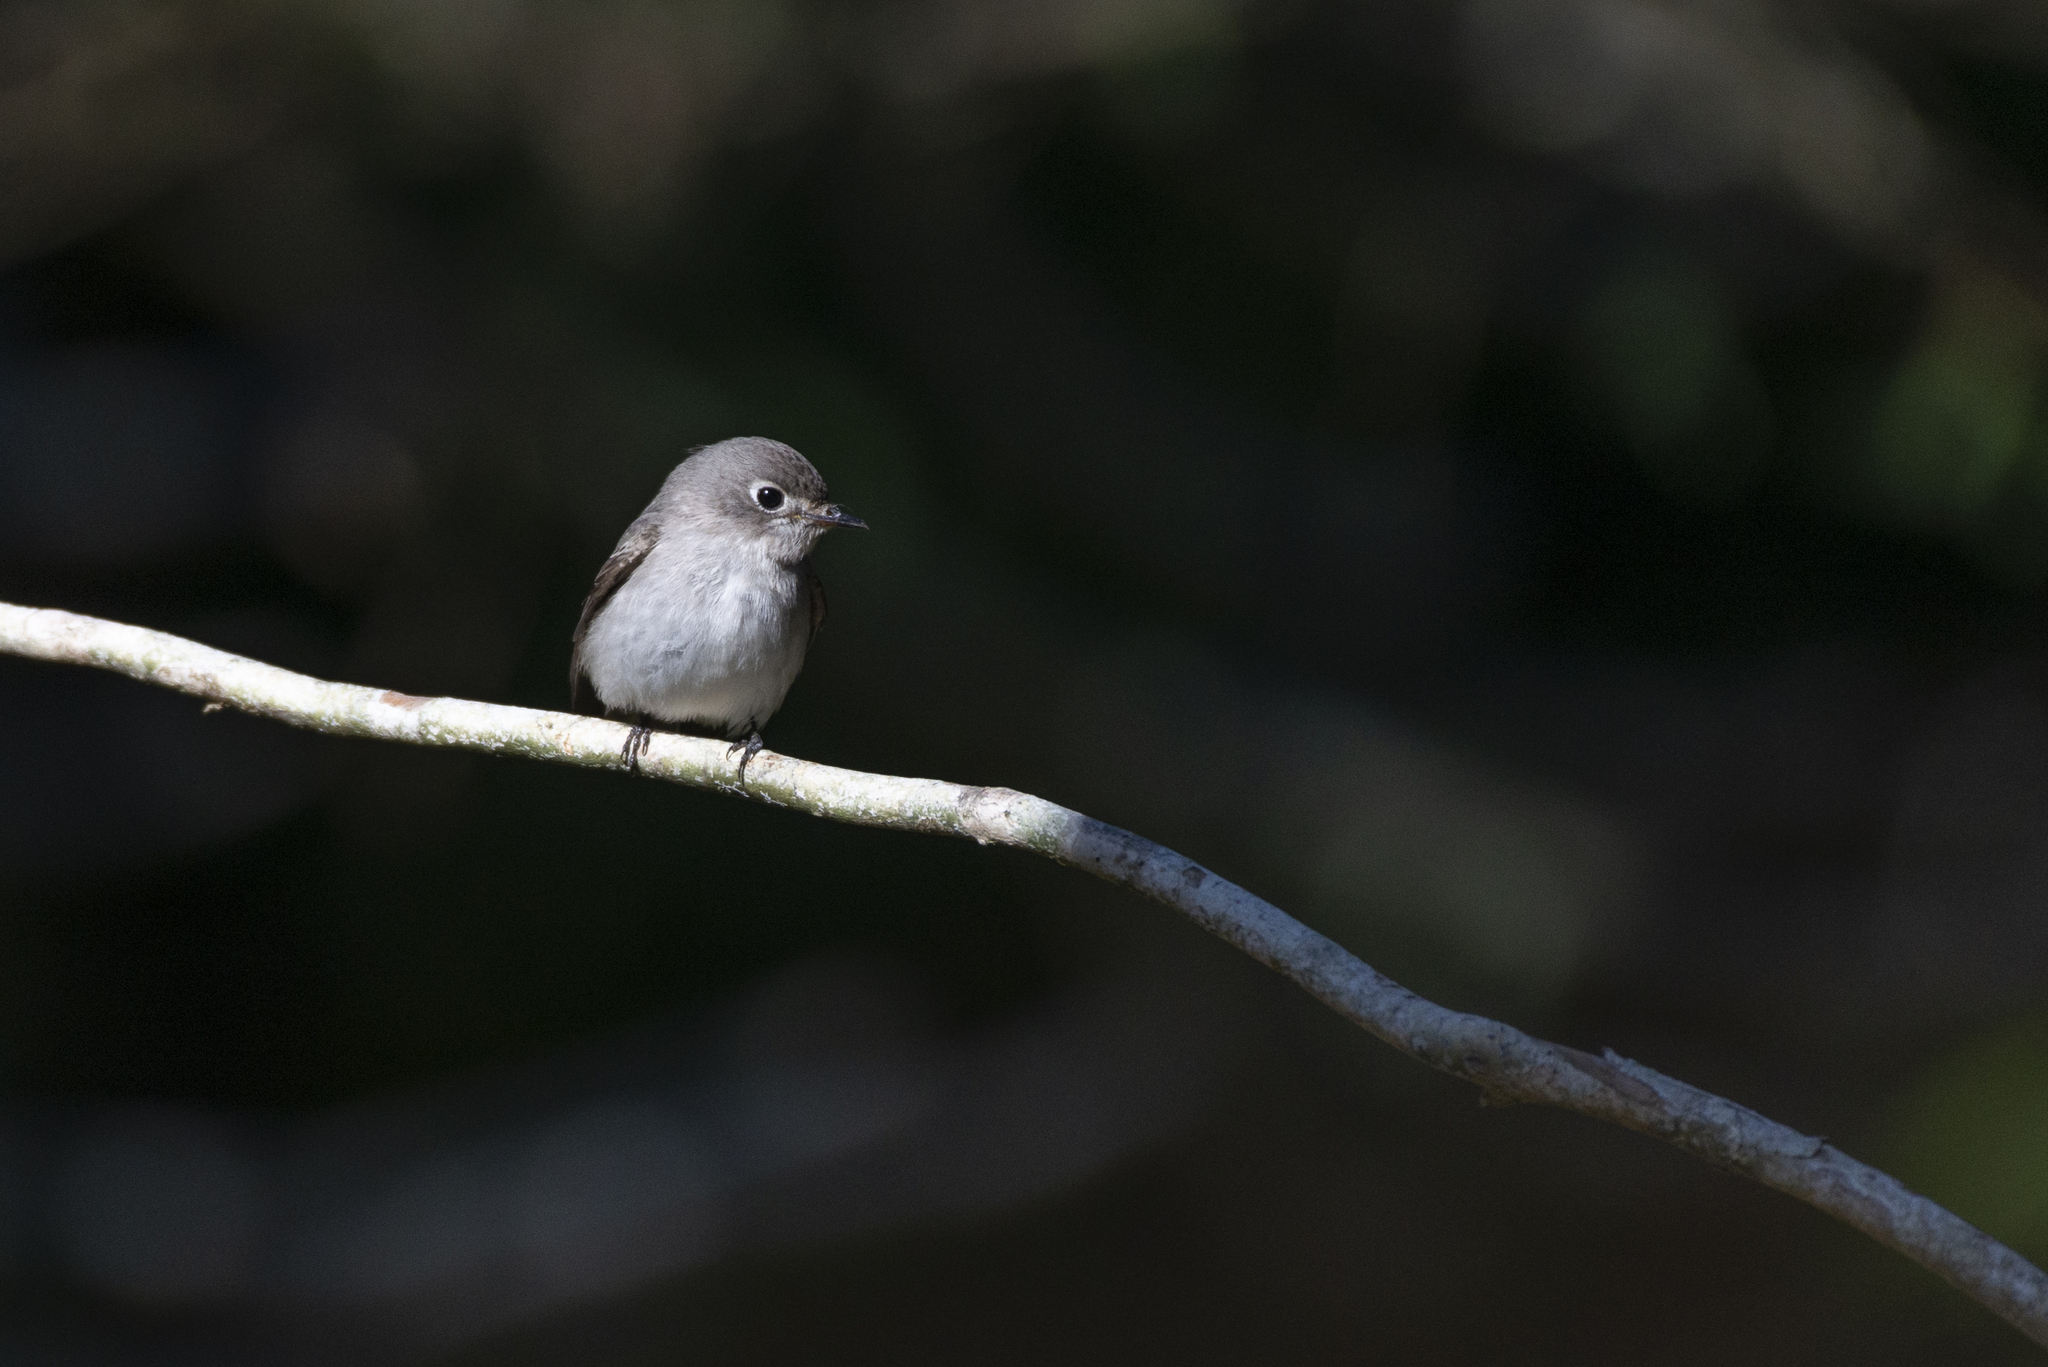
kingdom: Animalia
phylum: Chordata
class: Aves
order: Passeriformes
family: Muscicapidae
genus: Muscicapa
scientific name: Muscicapa latirostris
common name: Asian brown flycatcher
